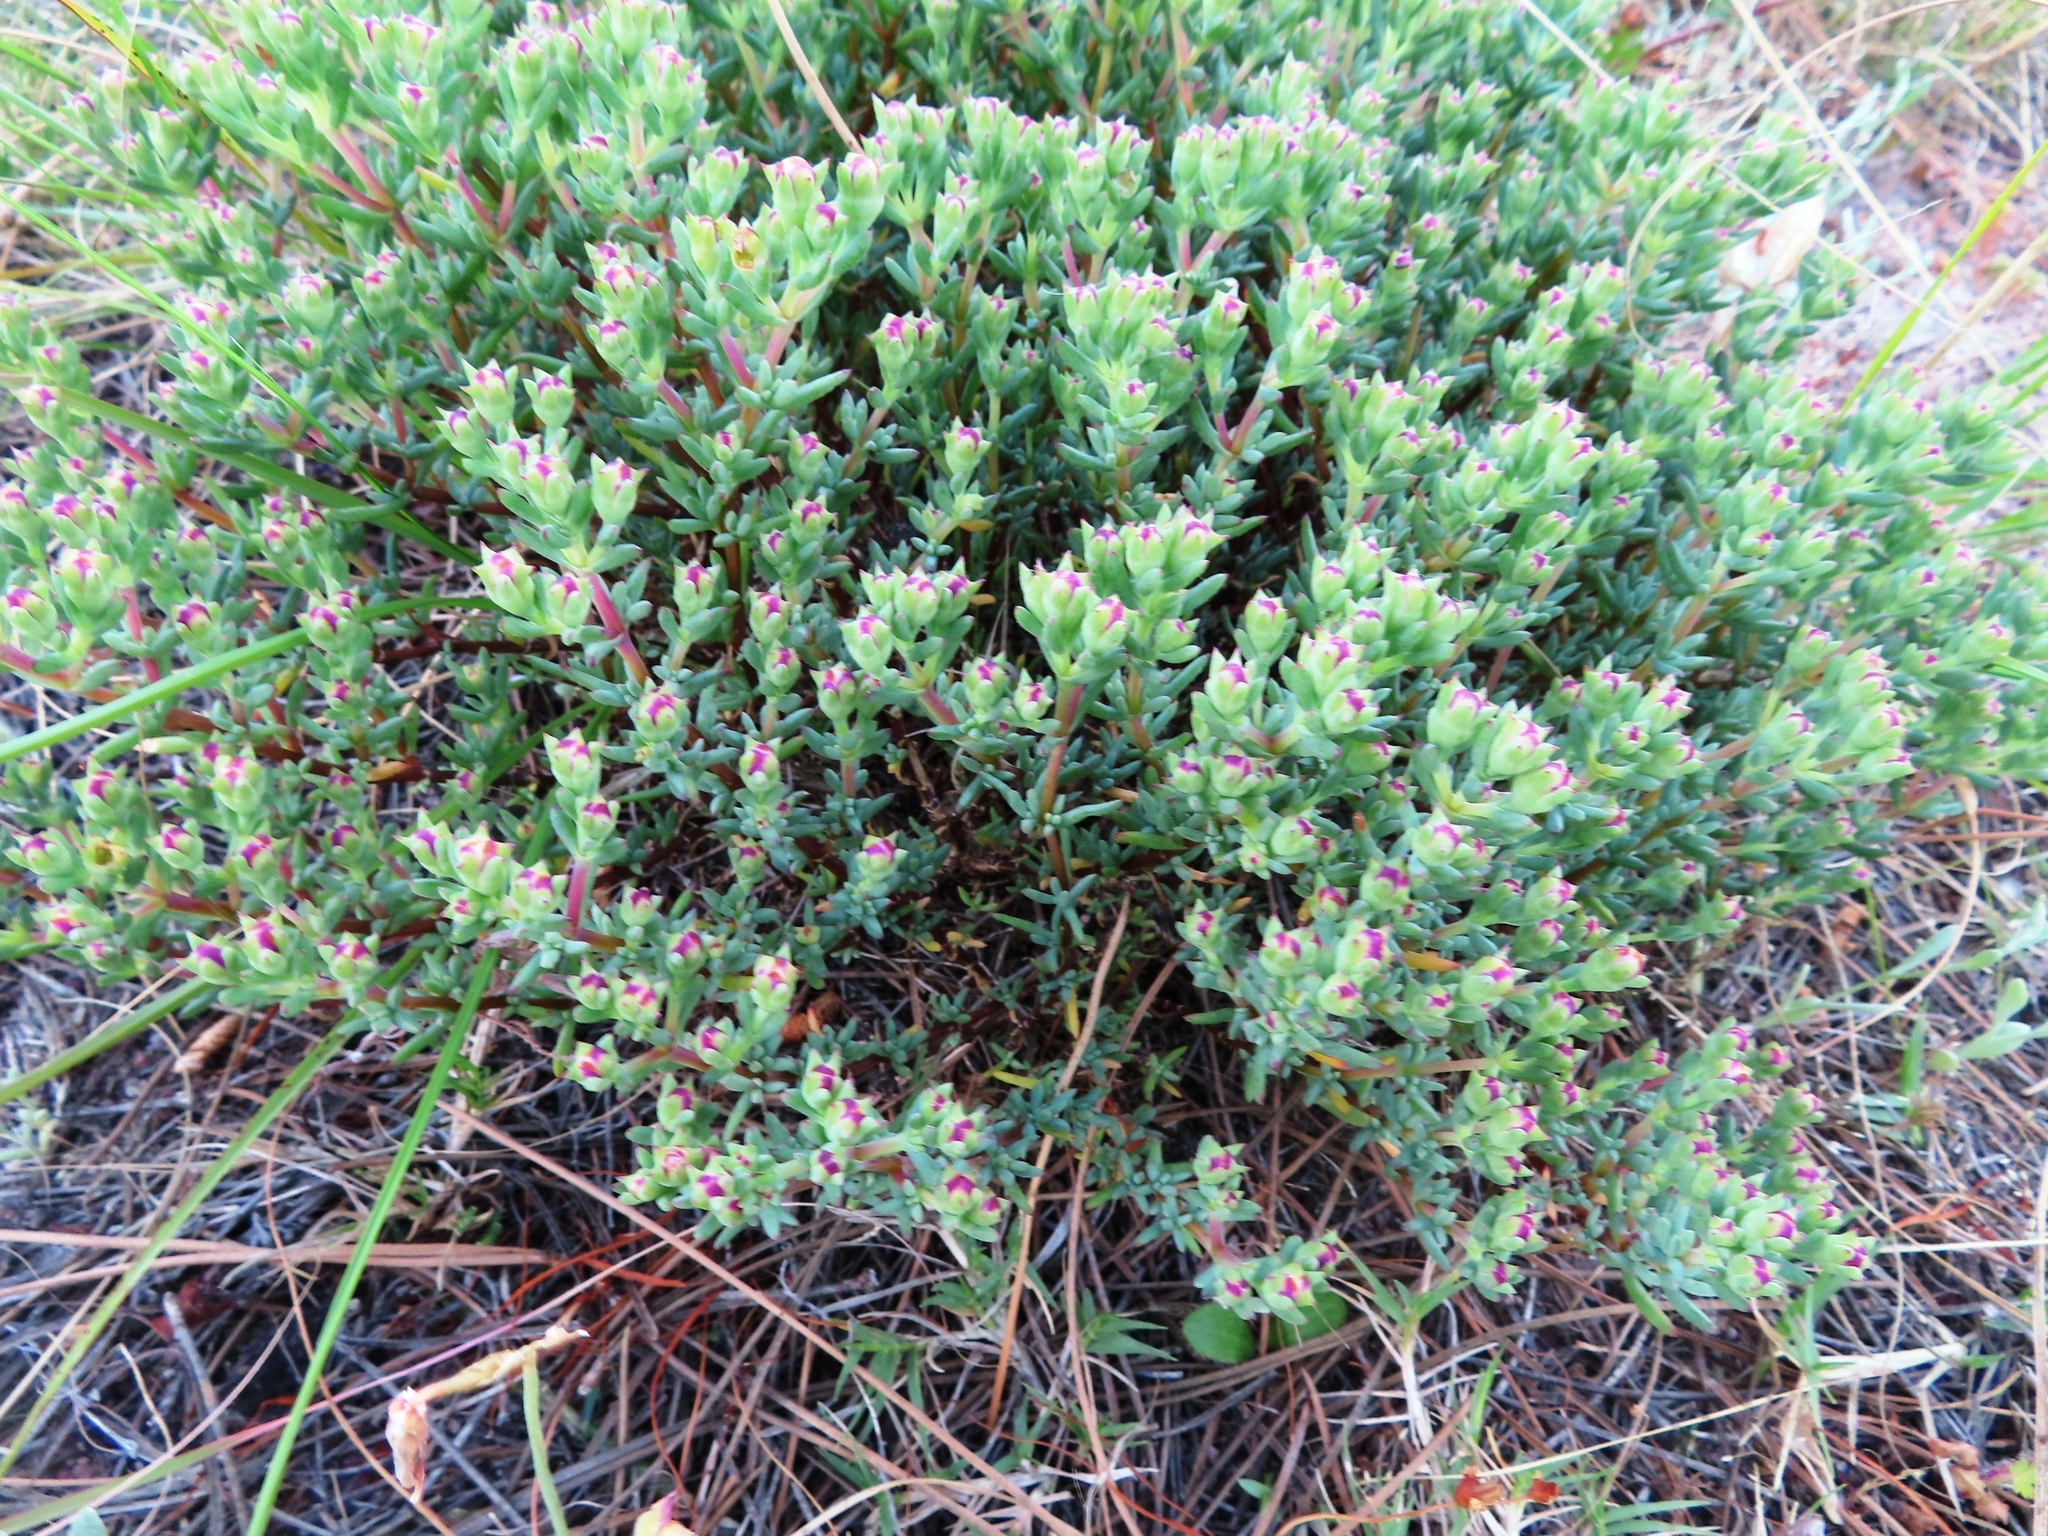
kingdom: Plantae
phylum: Tracheophyta
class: Magnoliopsida
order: Caryophyllales
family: Aizoaceae
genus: Lampranthus
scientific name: Lampranthus emarginatus
